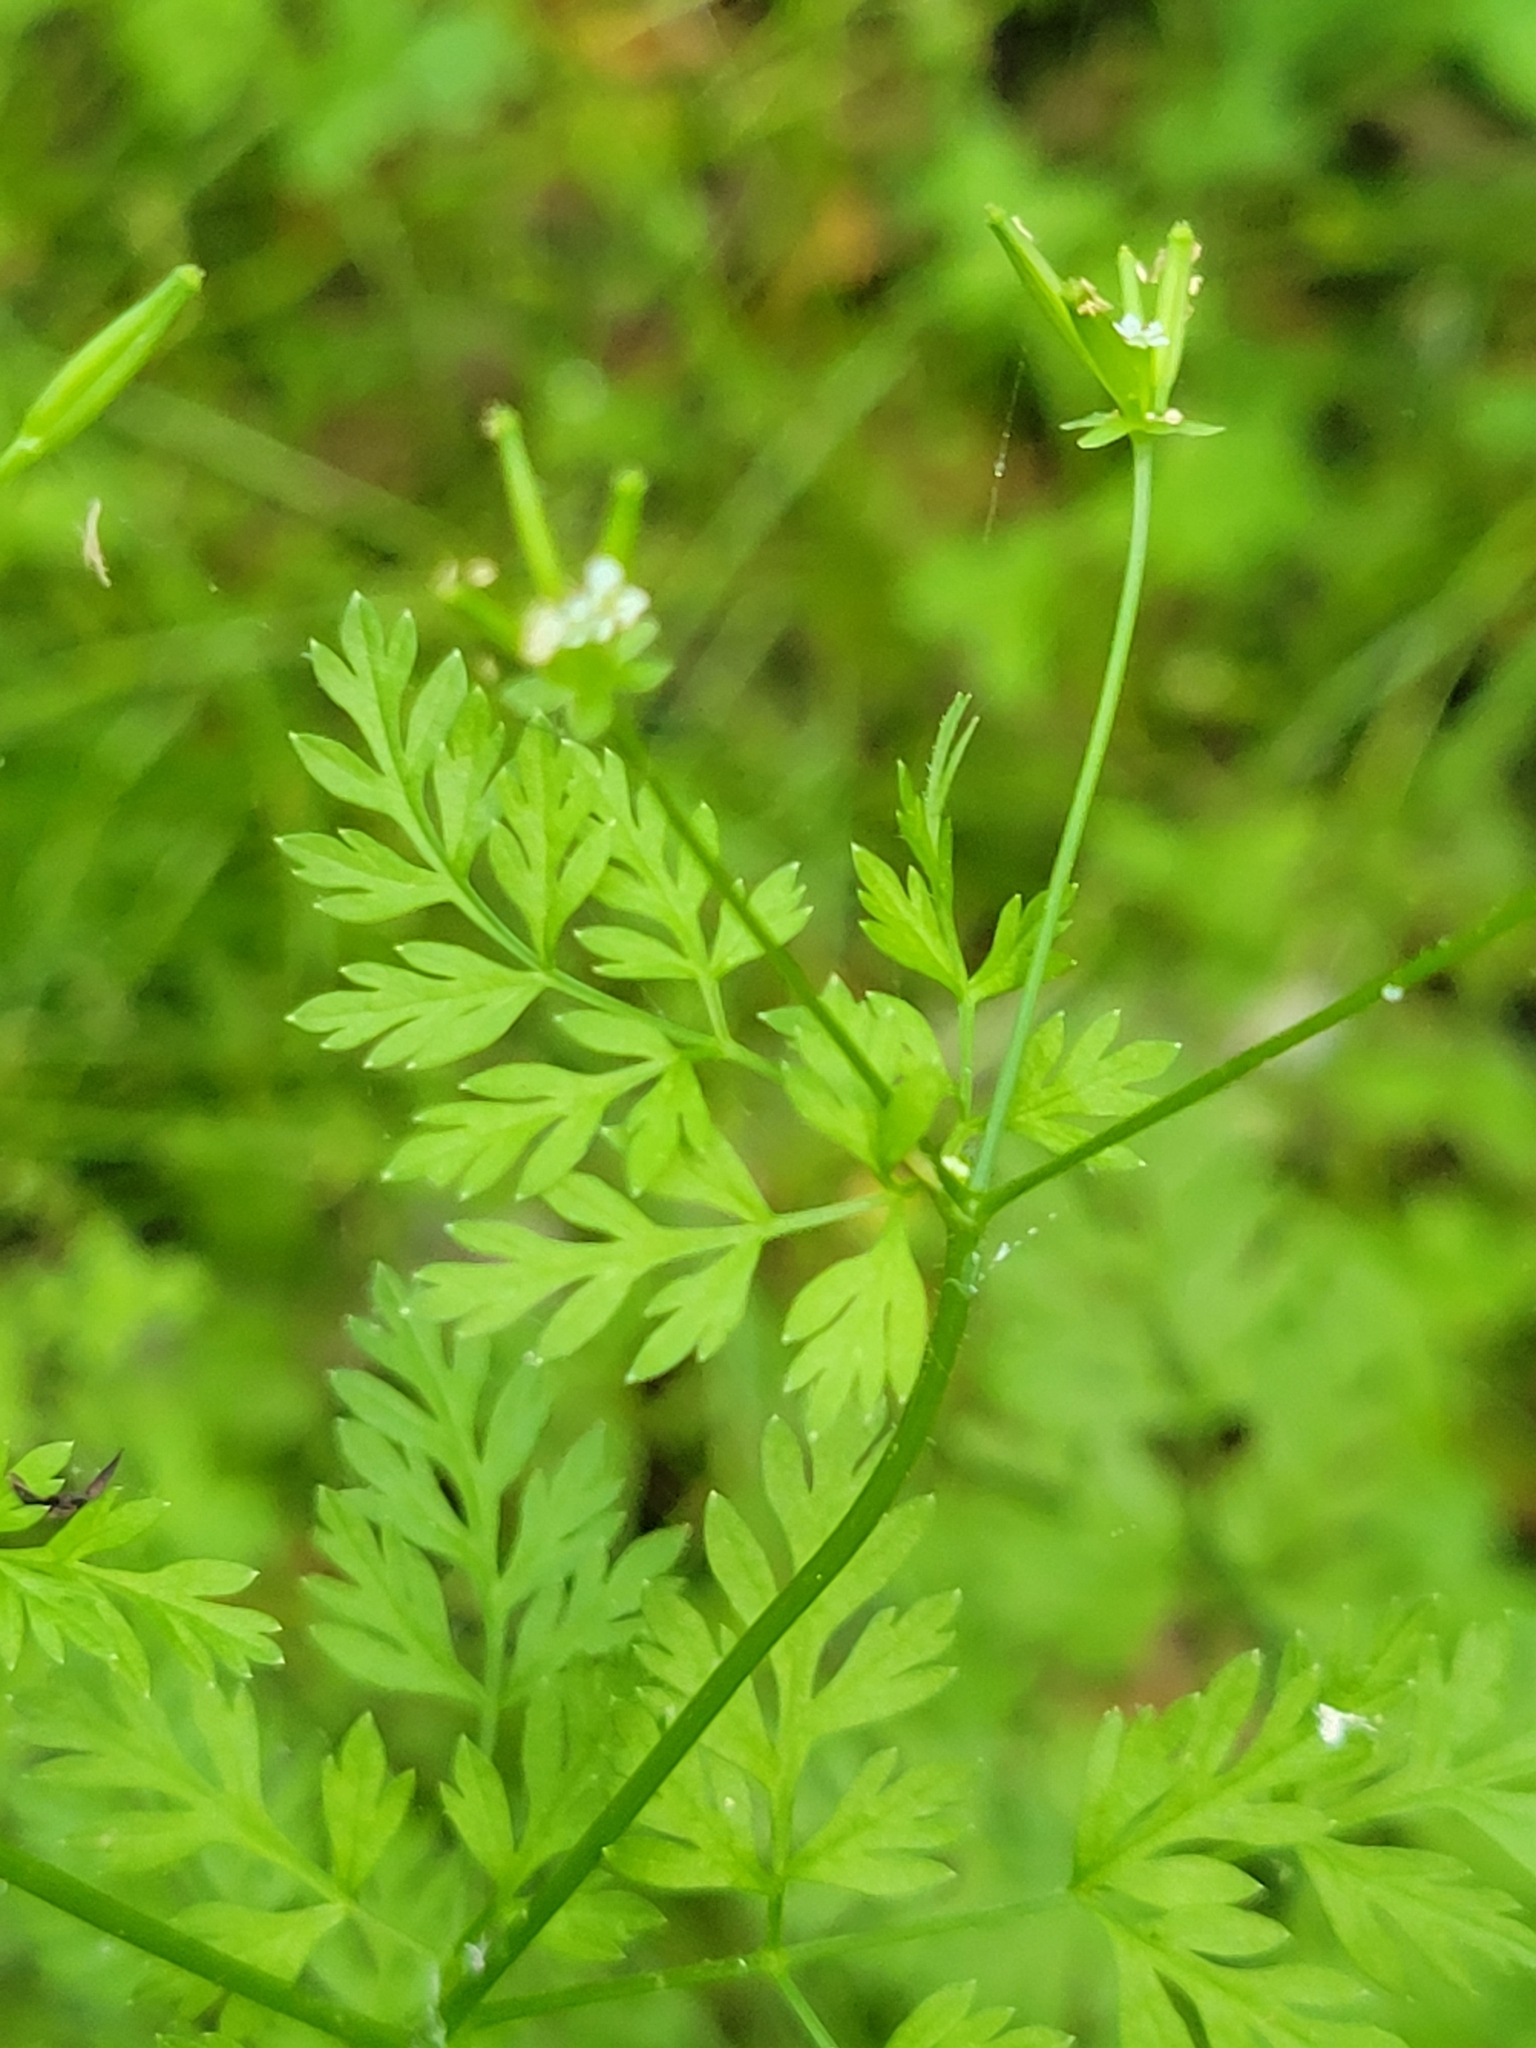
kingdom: Plantae
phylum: Tracheophyta
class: Magnoliopsida
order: Apiales
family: Apiaceae
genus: Chaerophyllum
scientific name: Chaerophyllum tainturieri
